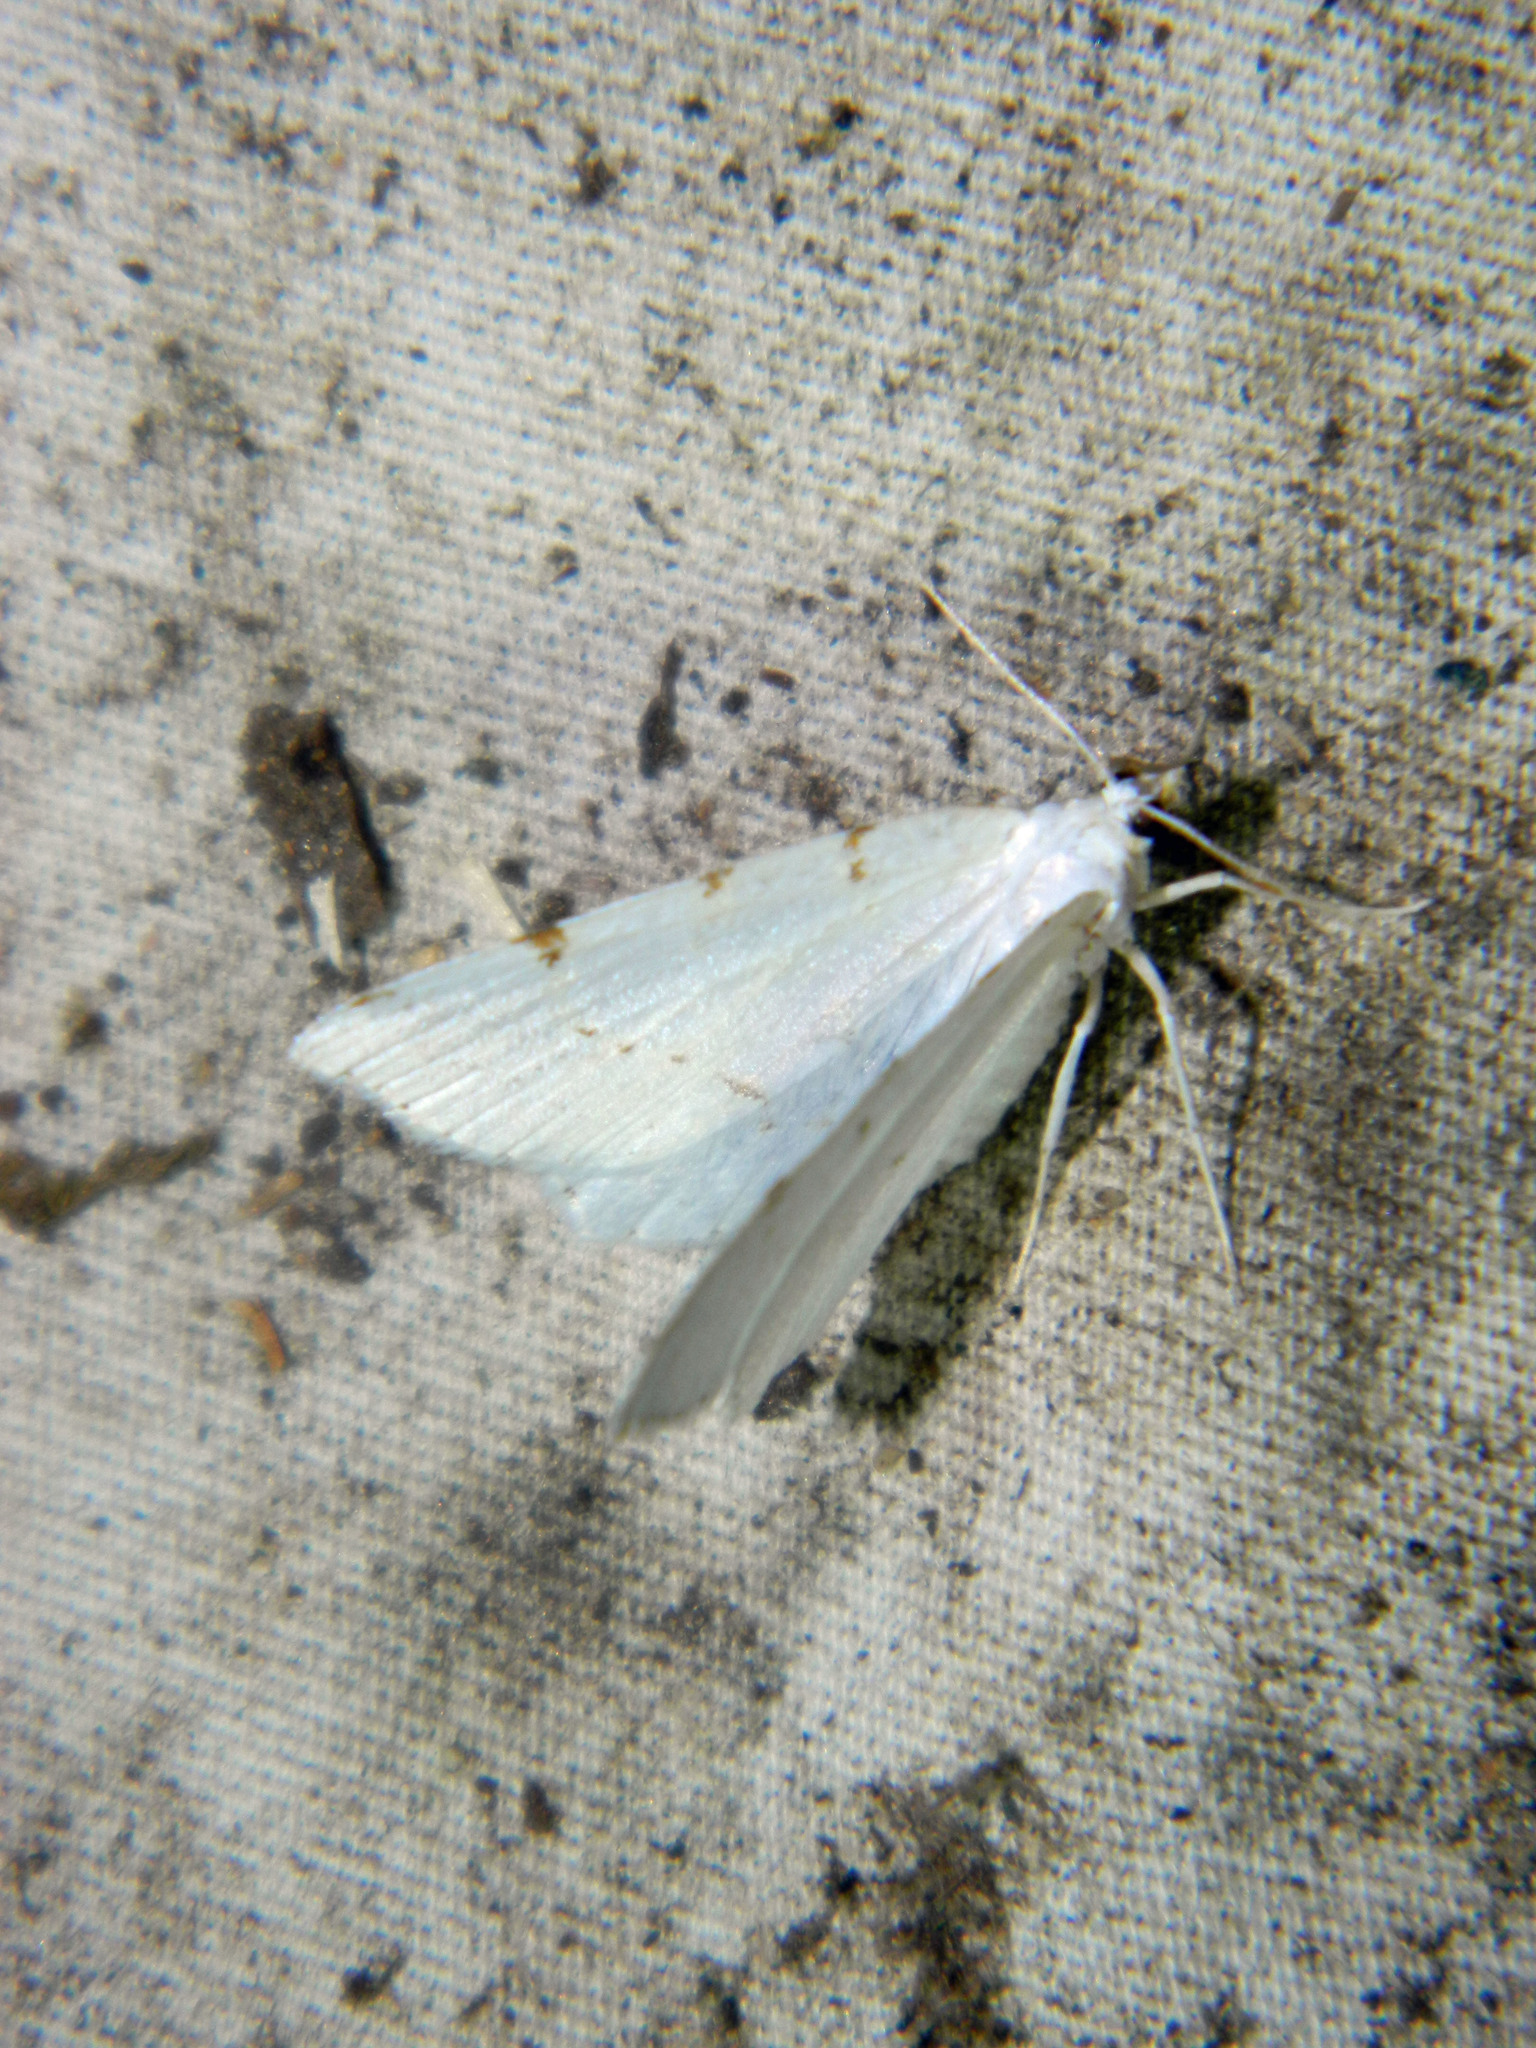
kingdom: Animalia
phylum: Arthropoda
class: Insecta
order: Lepidoptera
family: Geometridae
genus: Macaria
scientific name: Macaria pustularia
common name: Lesser maple spanworm moth
